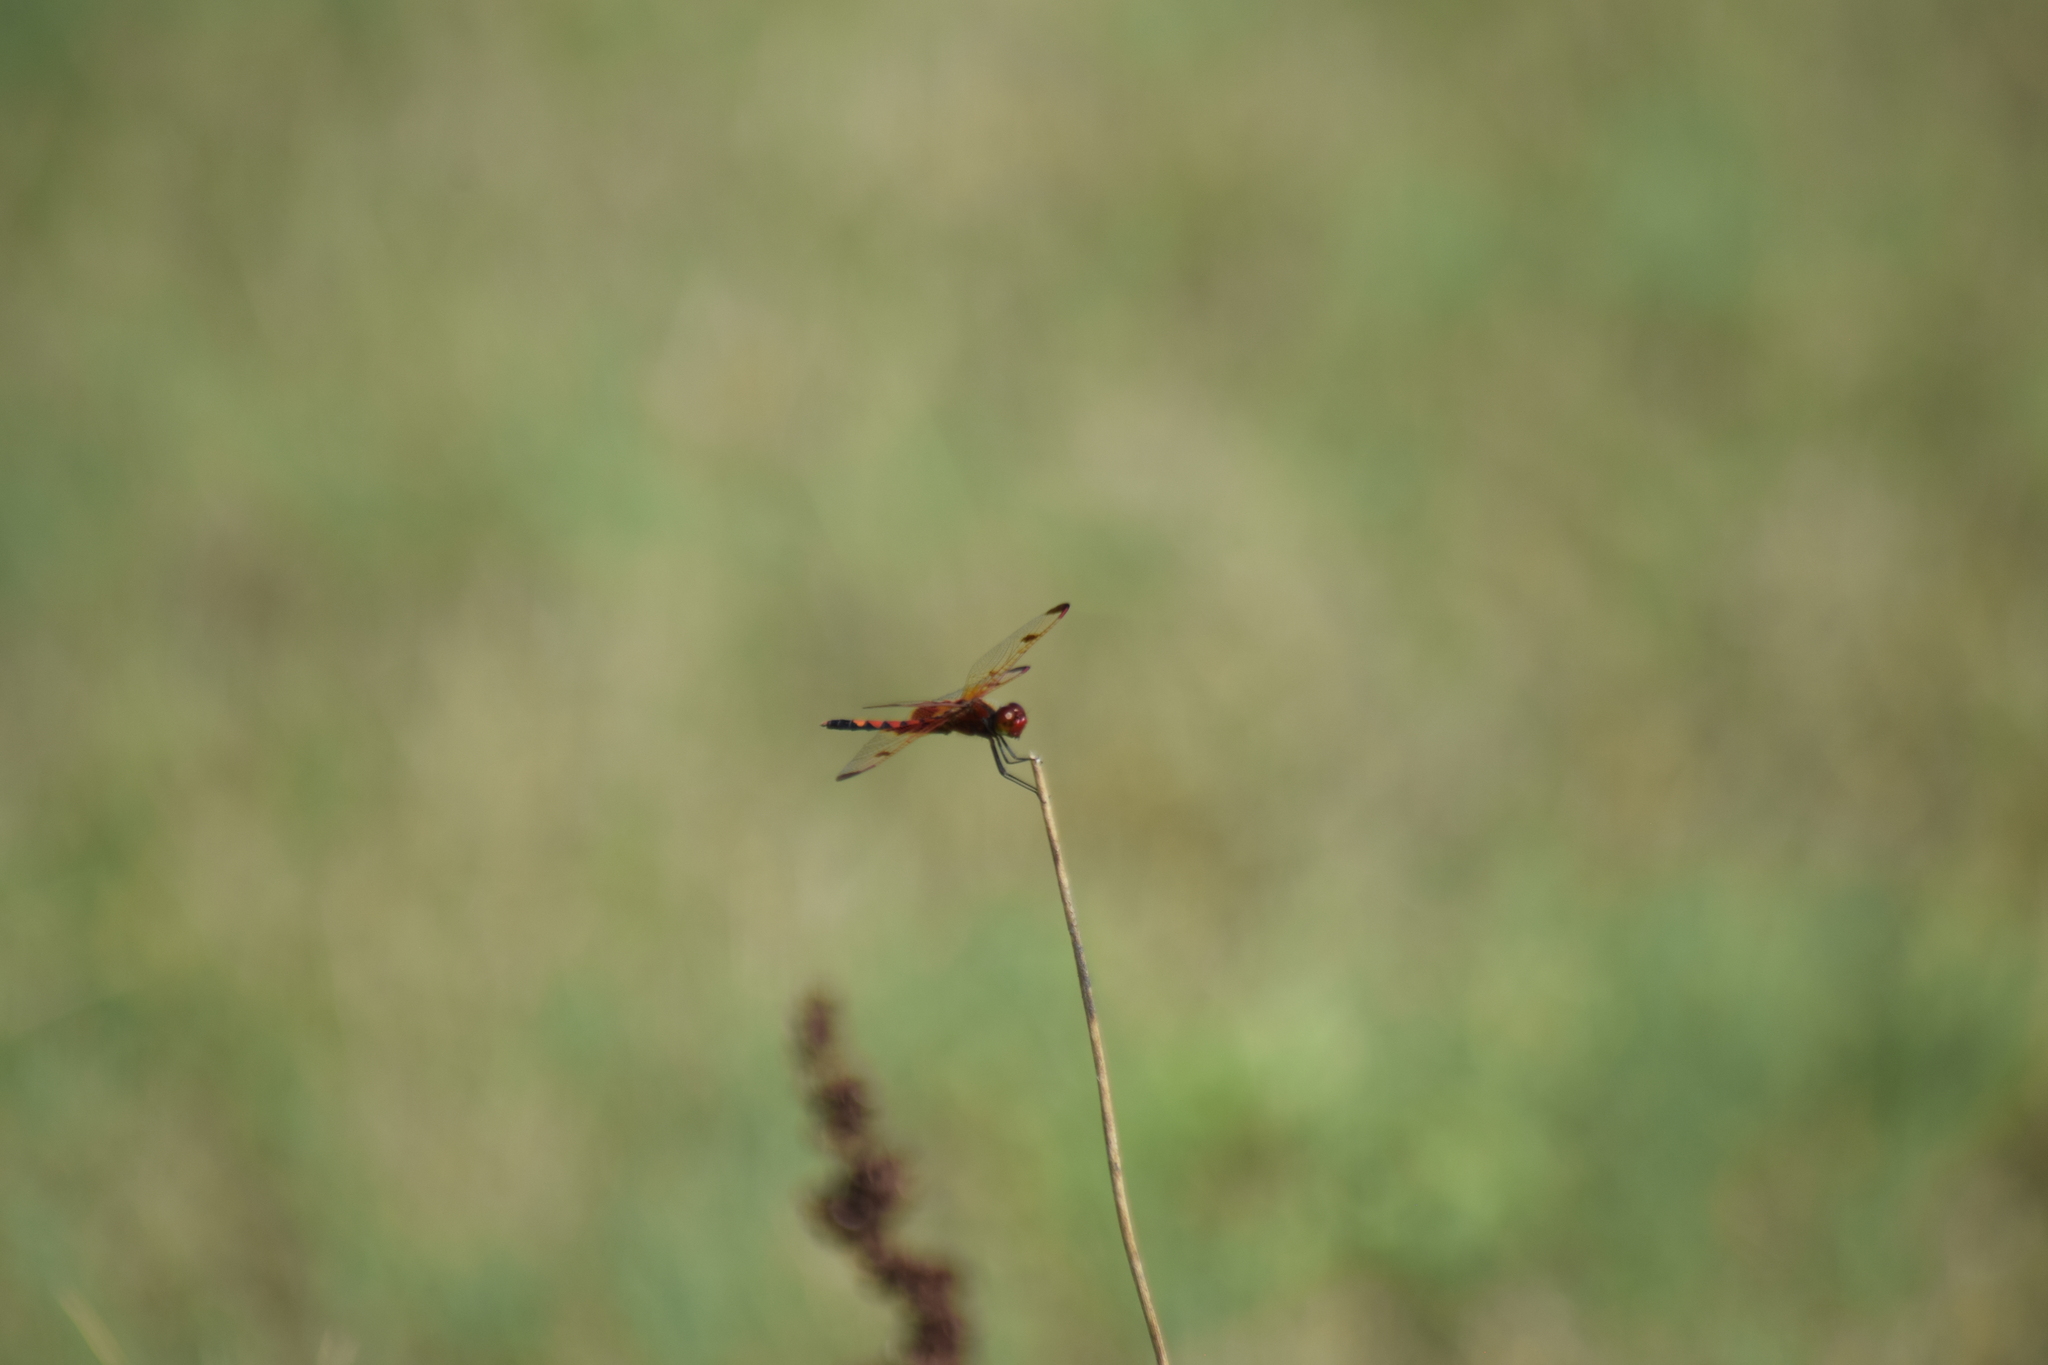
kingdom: Animalia
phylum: Arthropoda
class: Insecta
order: Odonata
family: Libellulidae
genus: Celithemis
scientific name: Celithemis elisa
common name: Calico pennant
